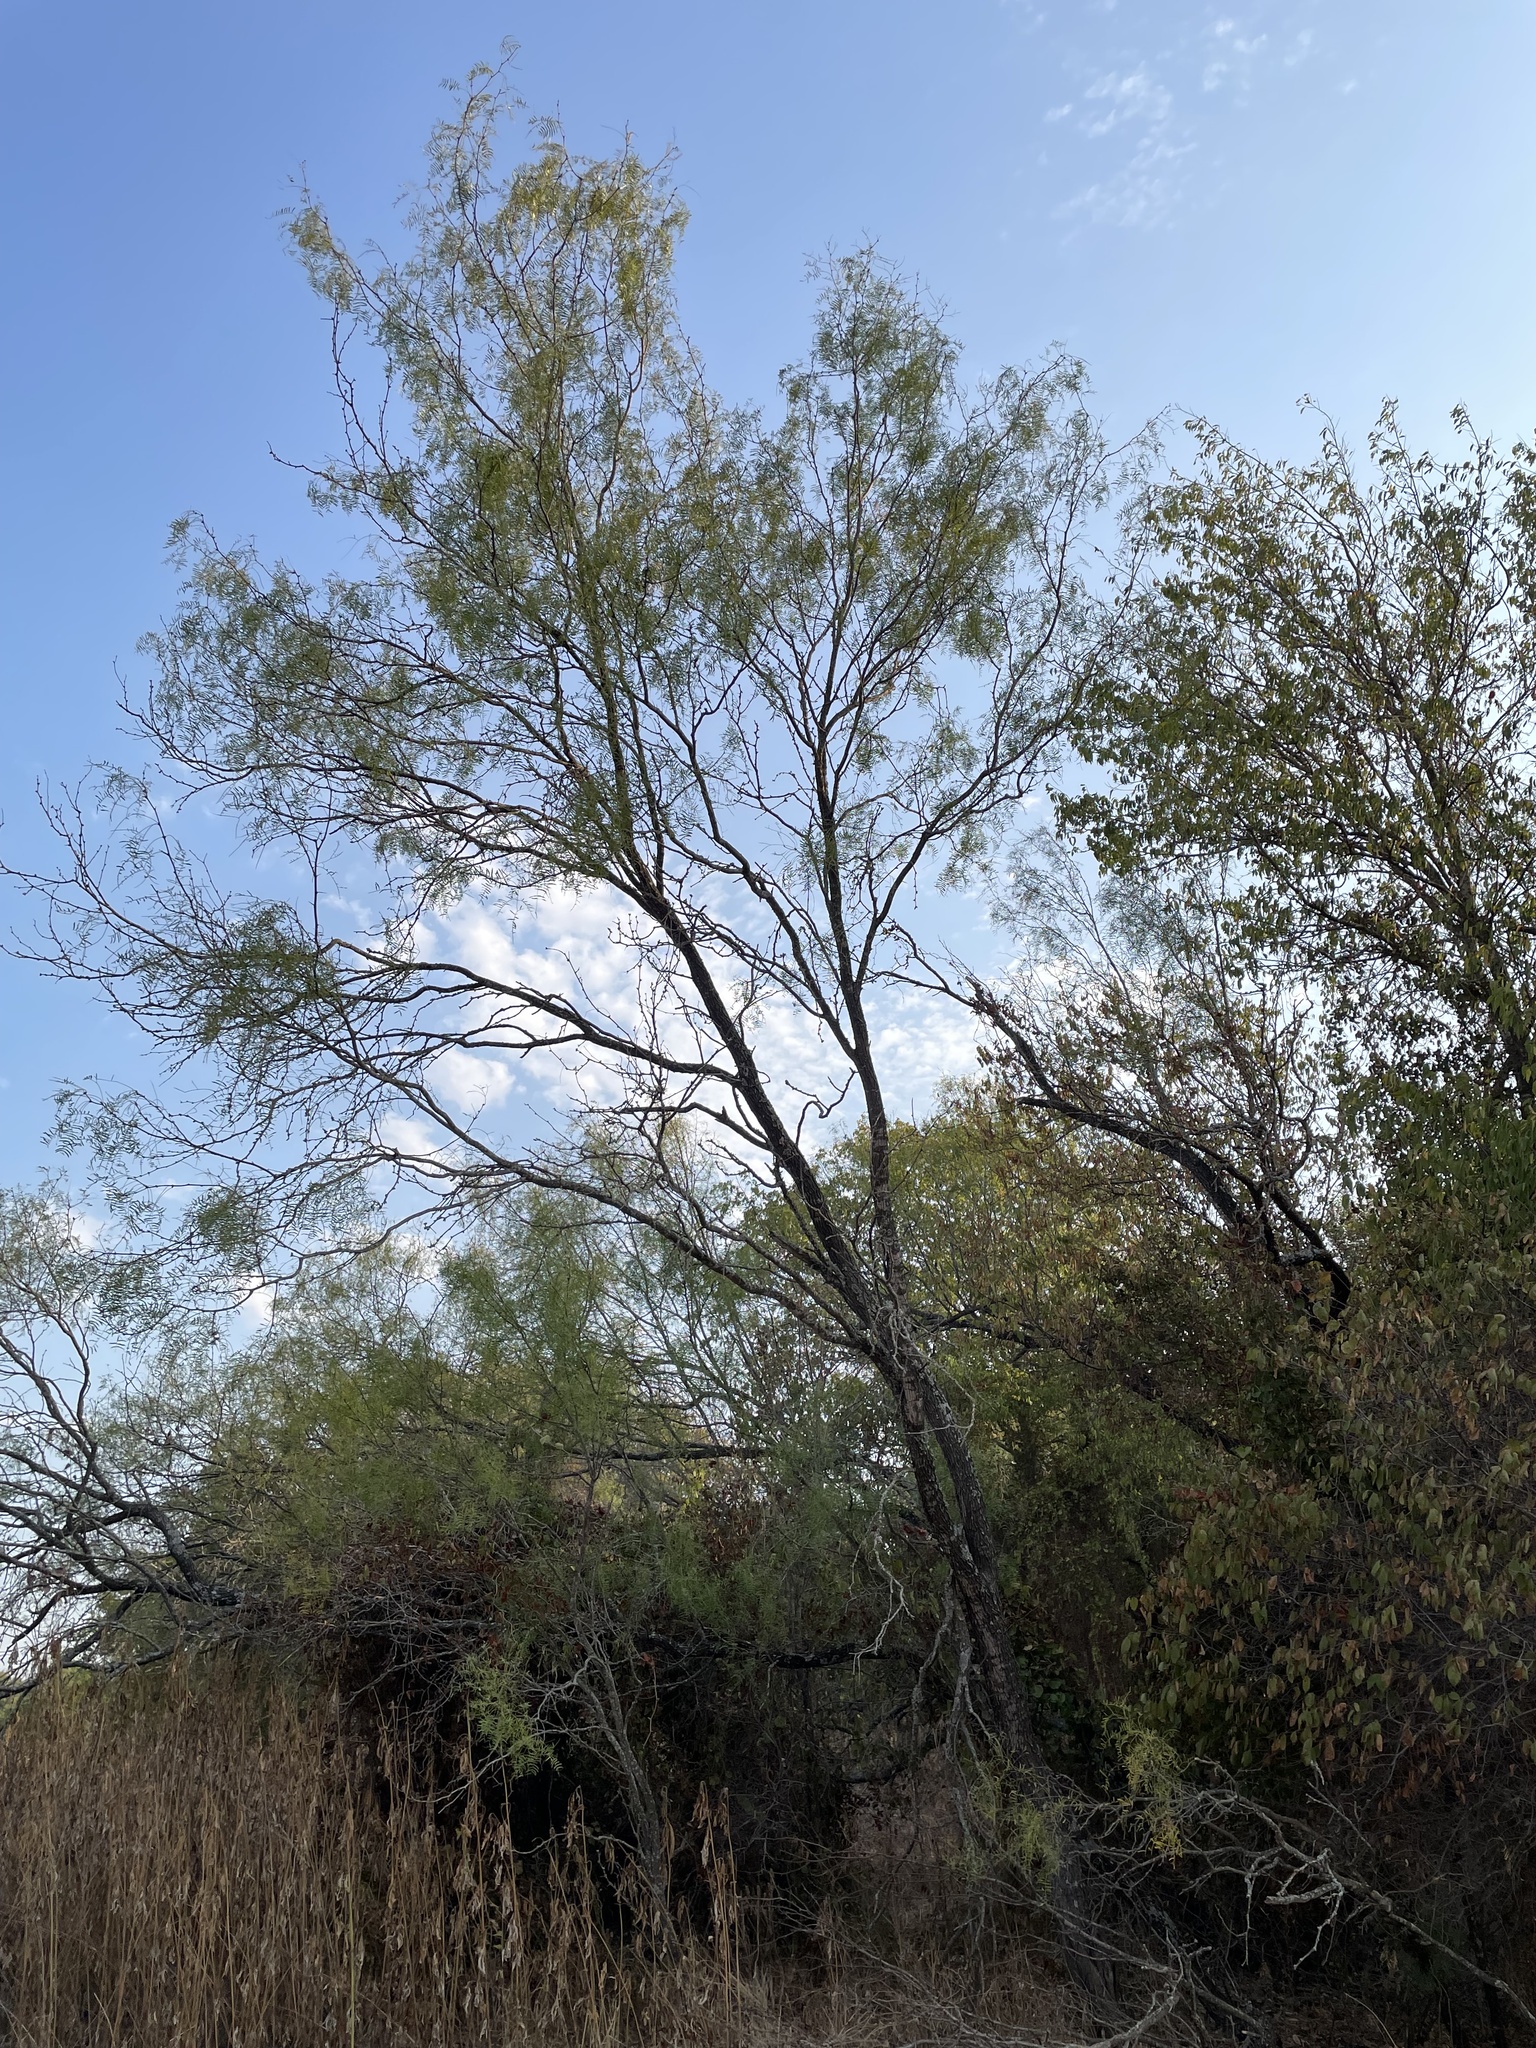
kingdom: Plantae
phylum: Tracheophyta
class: Magnoliopsida
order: Fabales
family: Fabaceae
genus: Prosopis
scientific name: Prosopis glandulosa
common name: Honey mesquite
